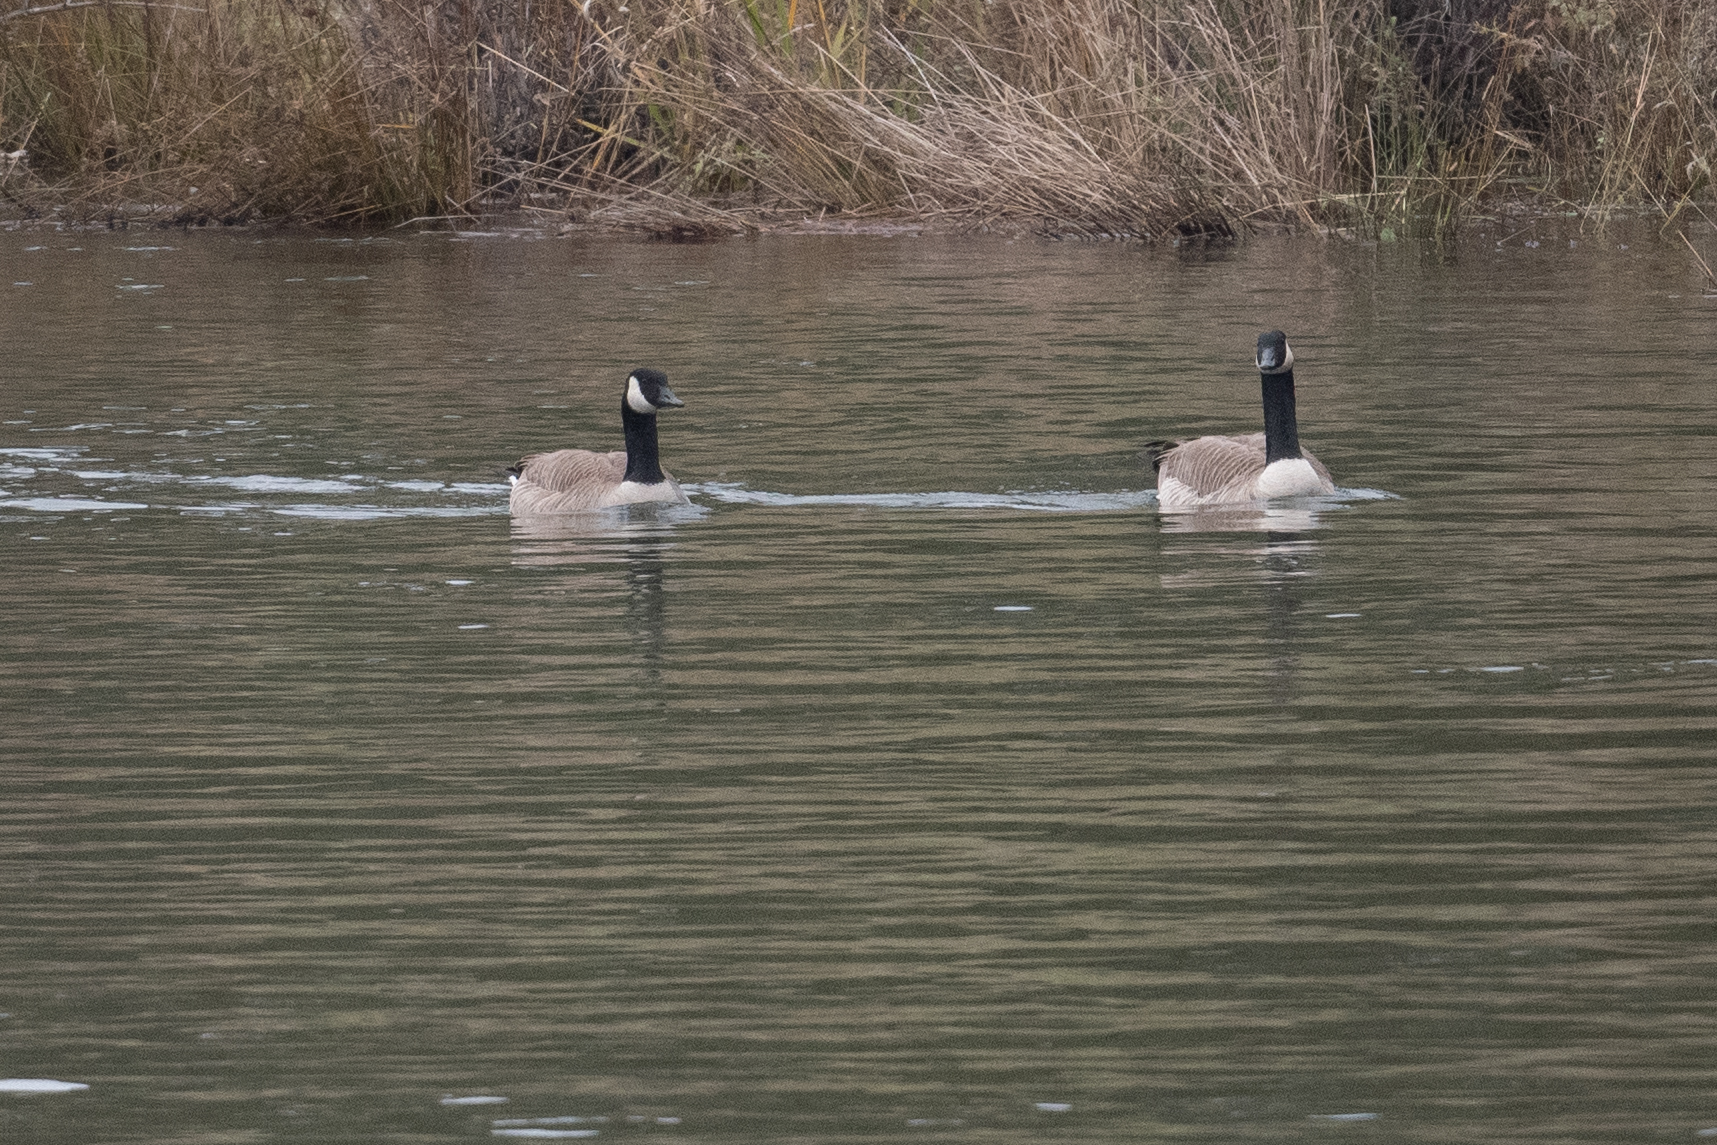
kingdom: Animalia
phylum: Chordata
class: Aves
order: Anseriformes
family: Anatidae
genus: Branta
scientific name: Branta canadensis
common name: Canada goose
